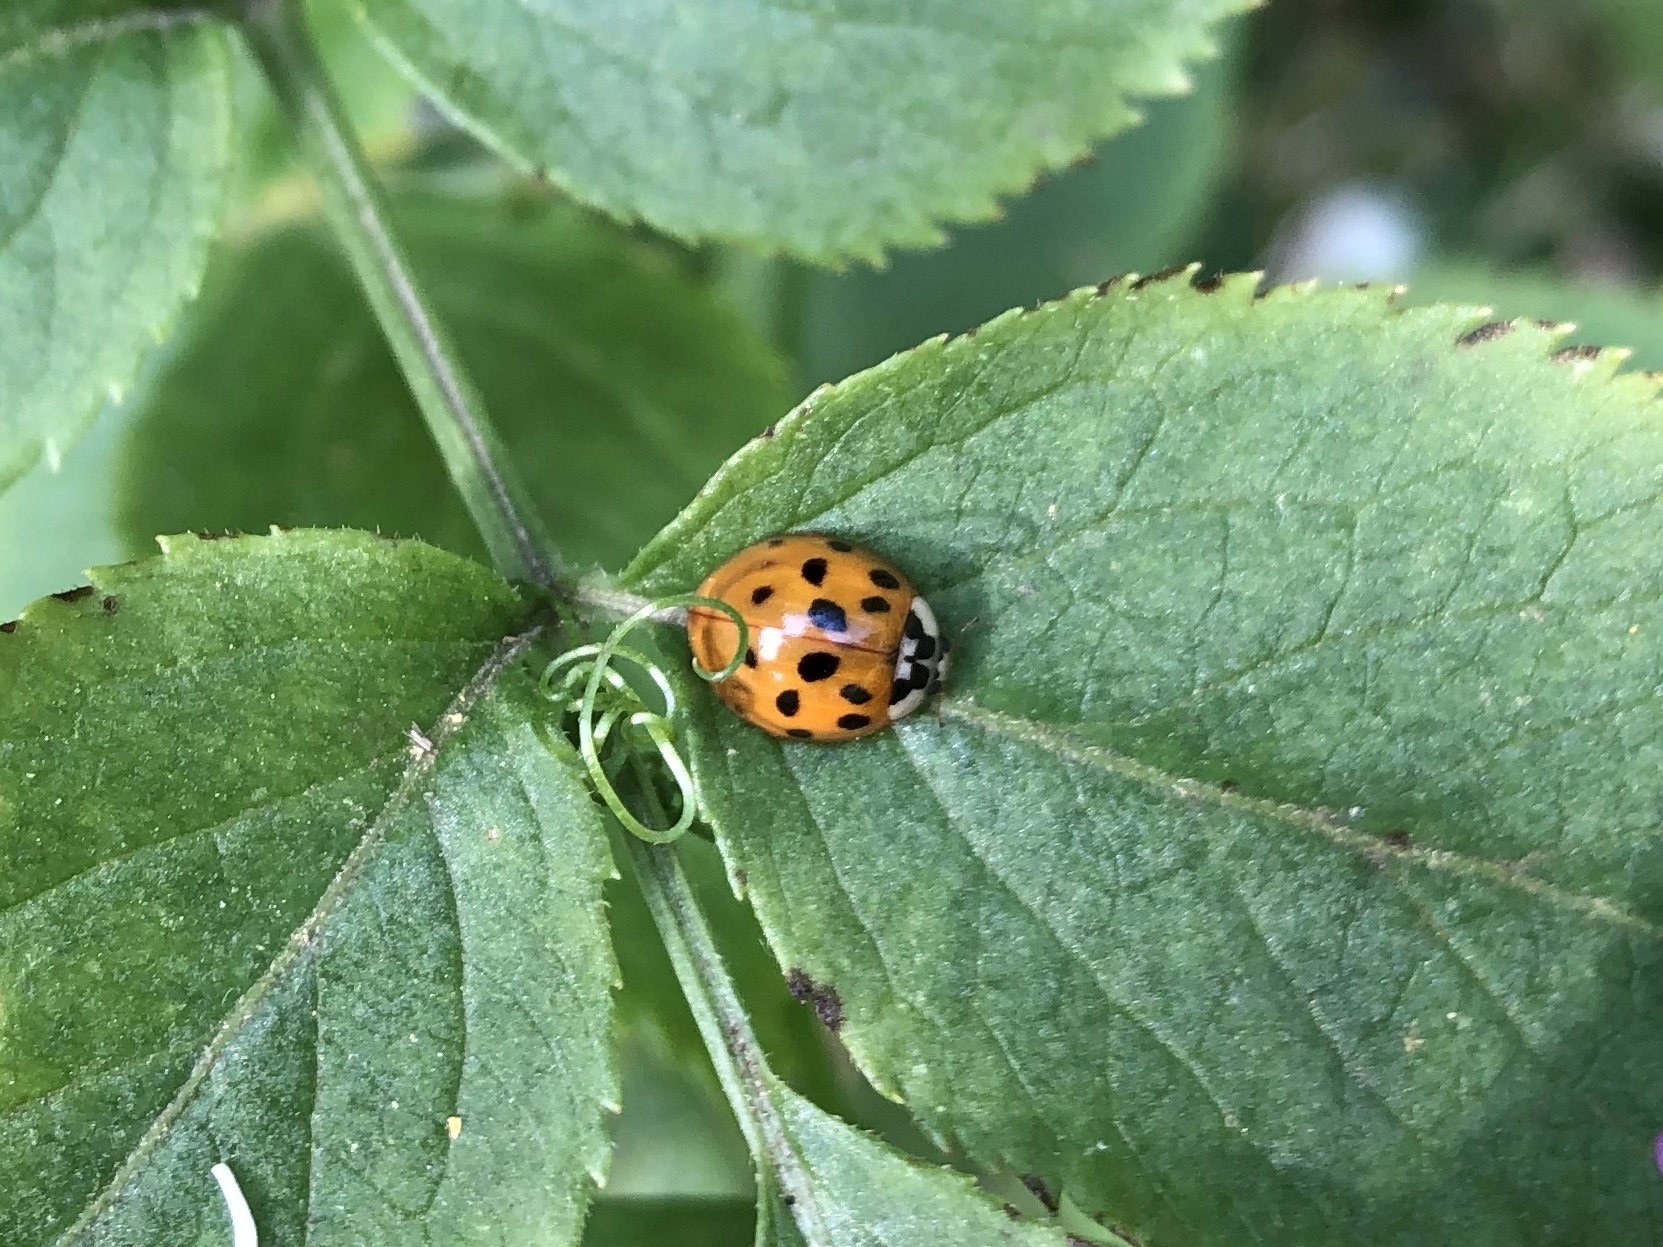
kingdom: Animalia
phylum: Arthropoda
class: Insecta
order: Coleoptera
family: Coccinellidae
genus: Harmonia
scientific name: Harmonia axyridis
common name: Harlequin ladybird
